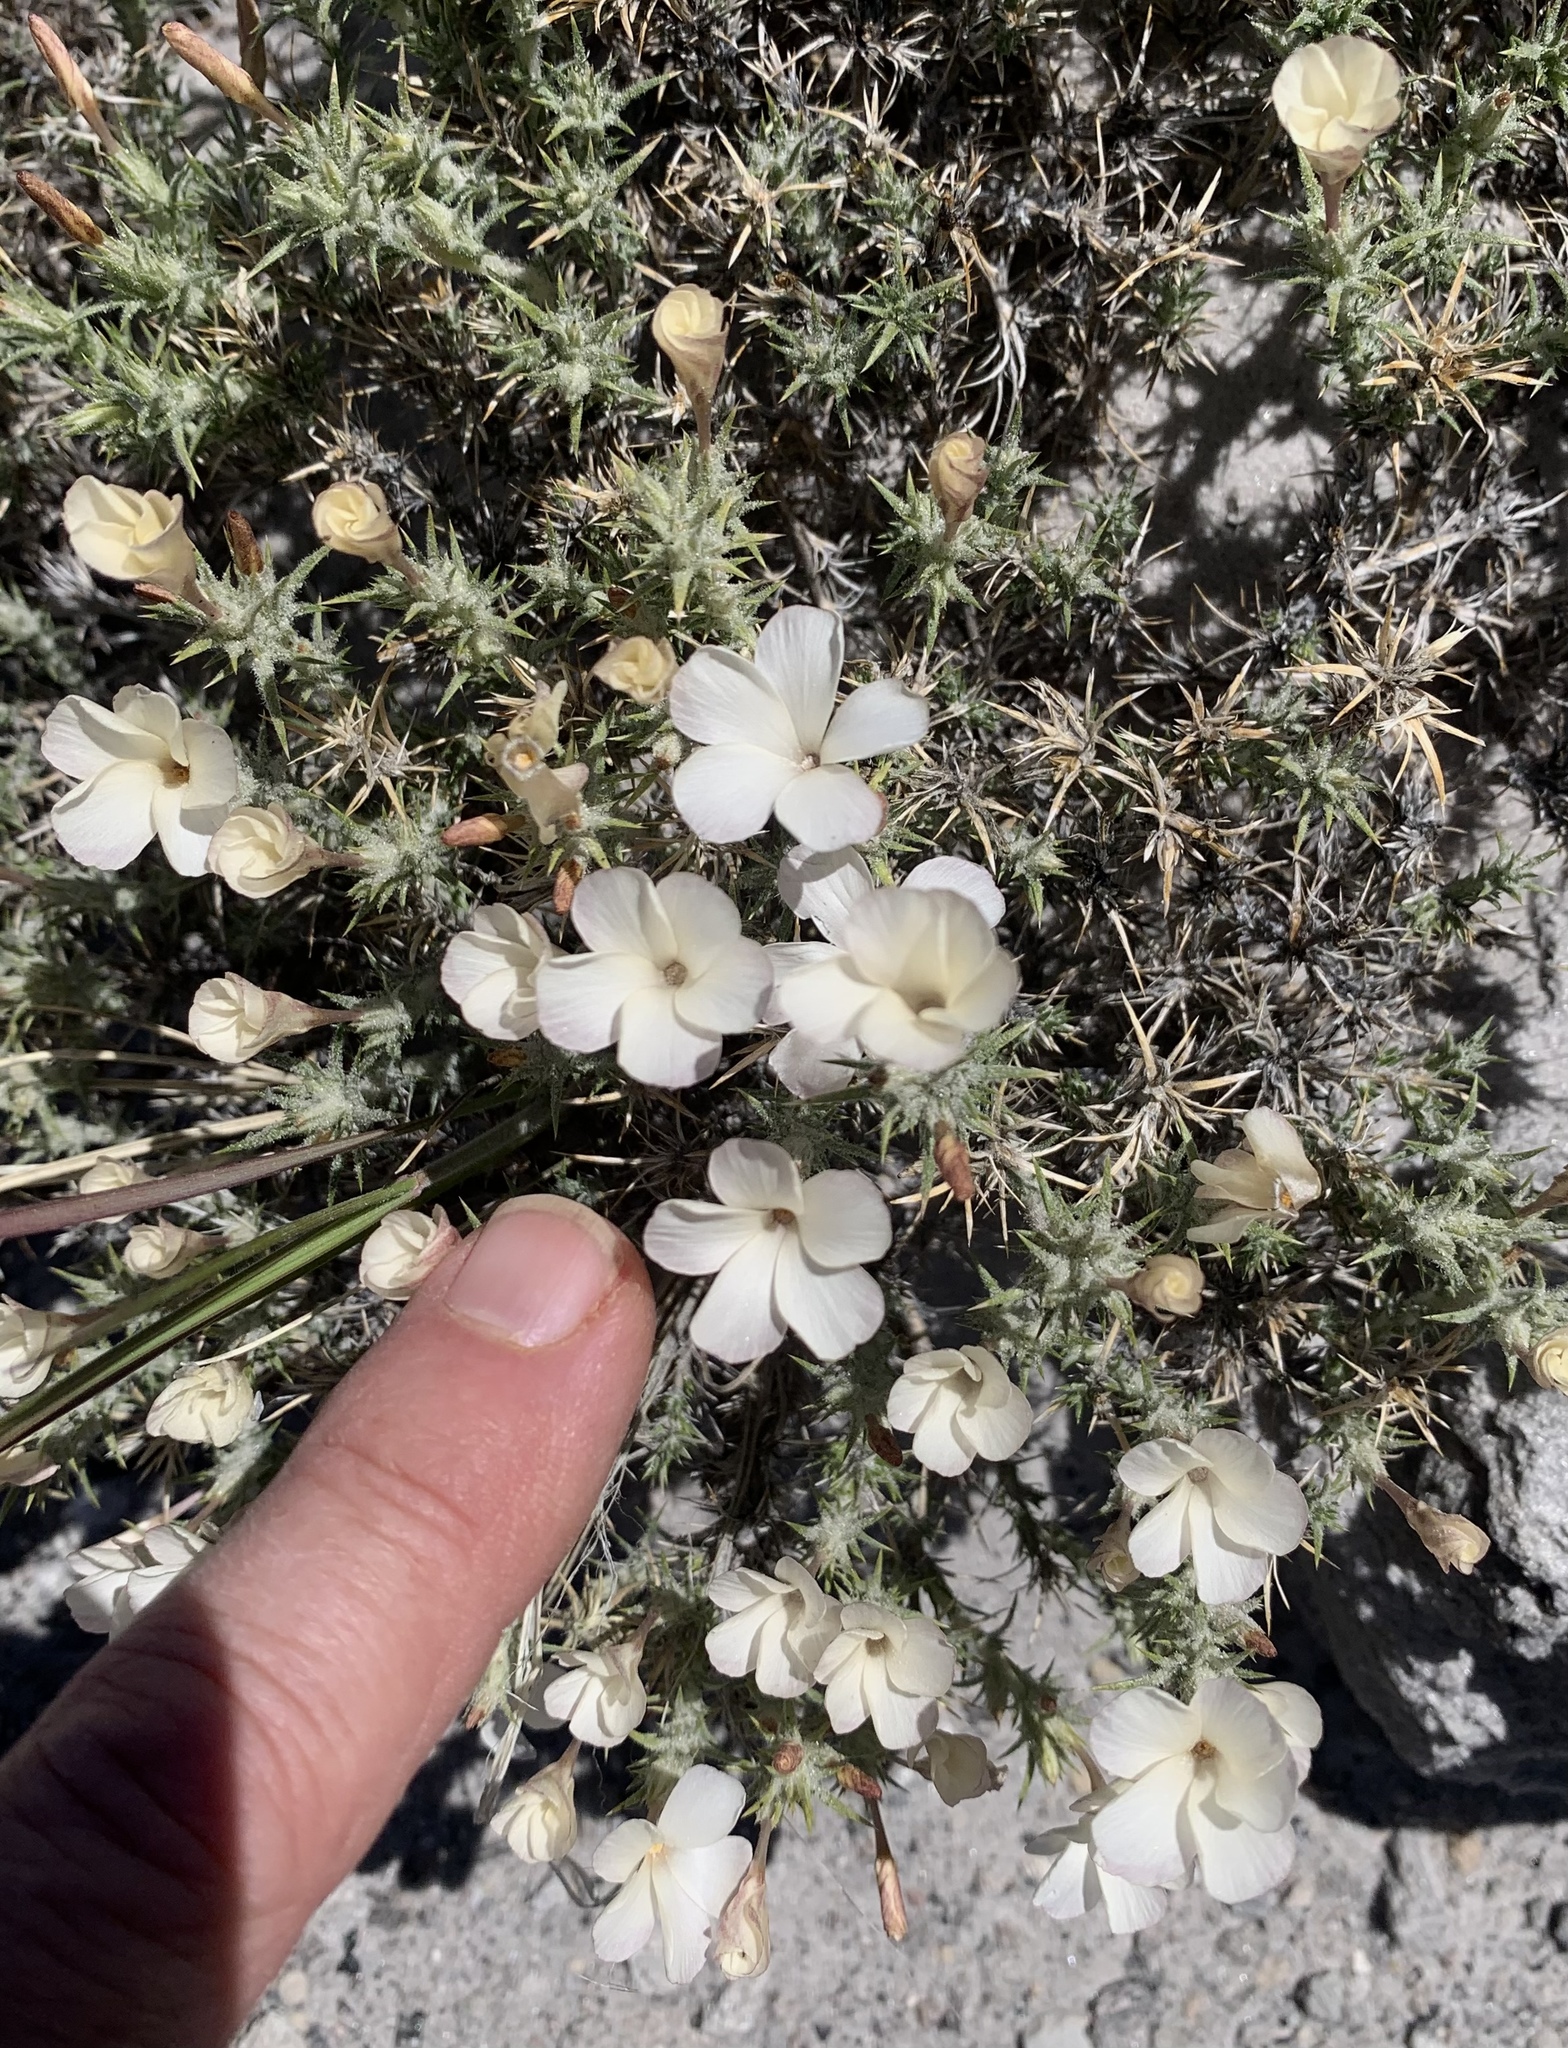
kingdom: Plantae
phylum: Tracheophyta
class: Magnoliopsida
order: Ericales
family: Polemoniaceae
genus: Linanthus
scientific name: Linanthus pungens
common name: Granite prickly phlox
